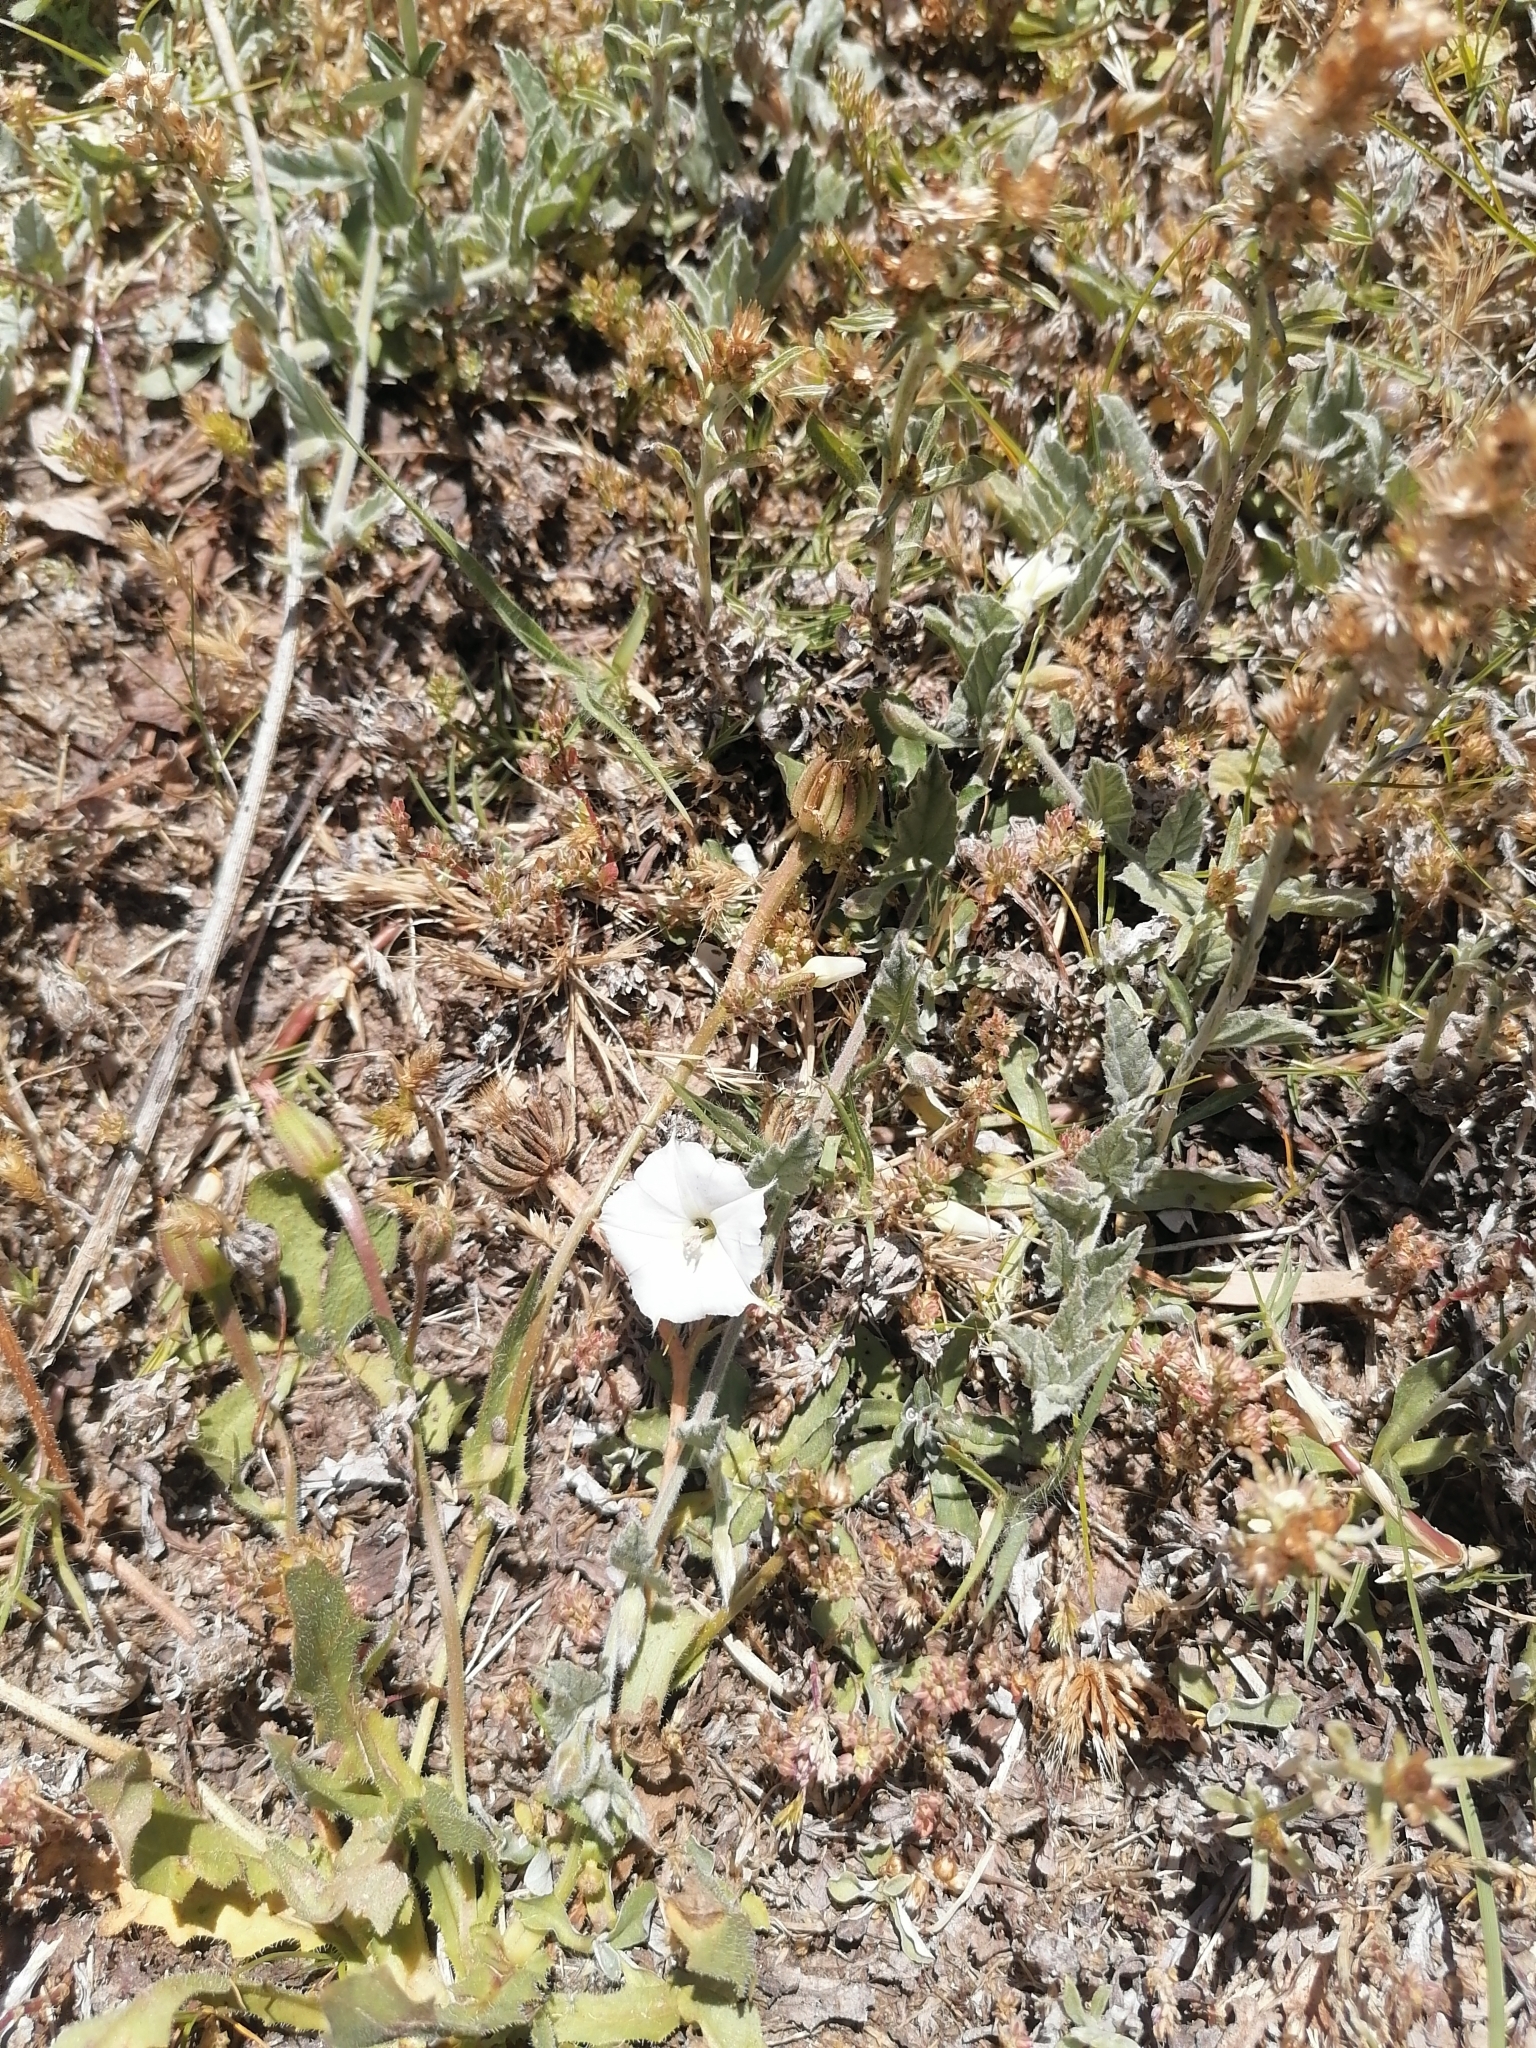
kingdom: Plantae
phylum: Tracheophyta
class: Magnoliopsida
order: Solanales
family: Convolvulaceae
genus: Convolvulus
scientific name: Convolvulus hermanniae
